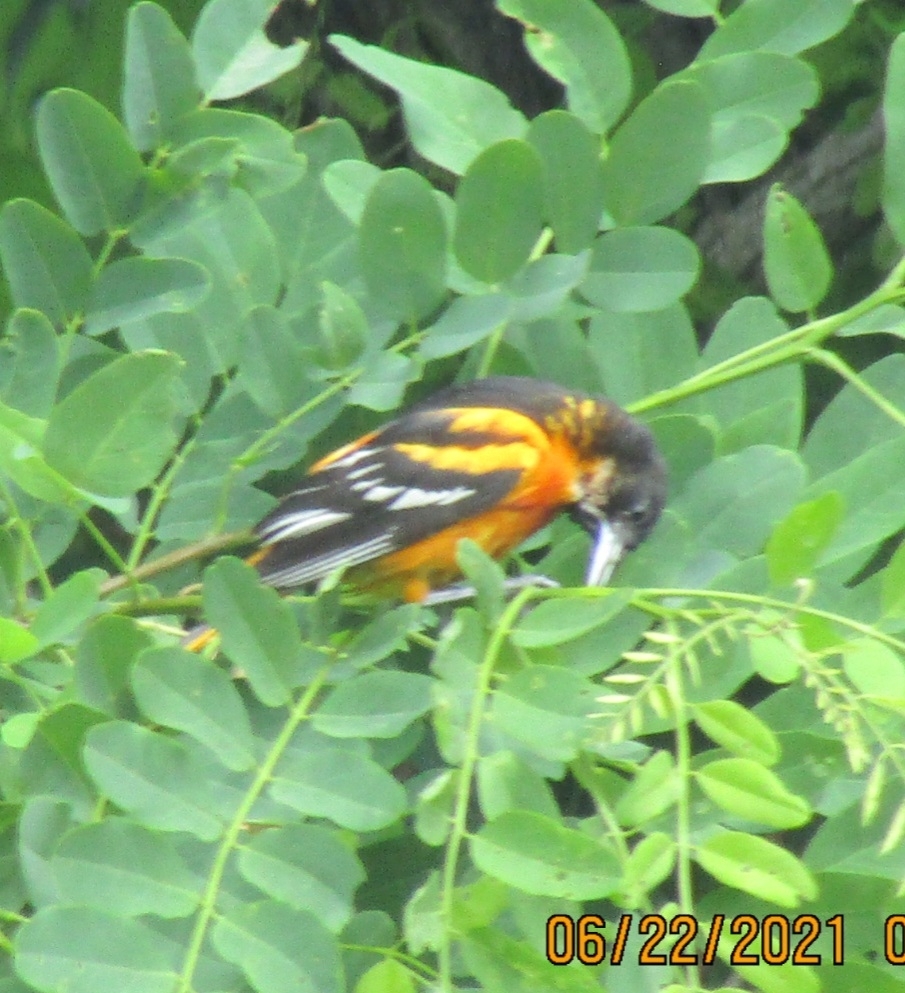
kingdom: Animalia
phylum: Chordata
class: Aves
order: Passeriformes
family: Icteridae
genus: Icterus
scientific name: Icterus galbula
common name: Baltimore oriole
